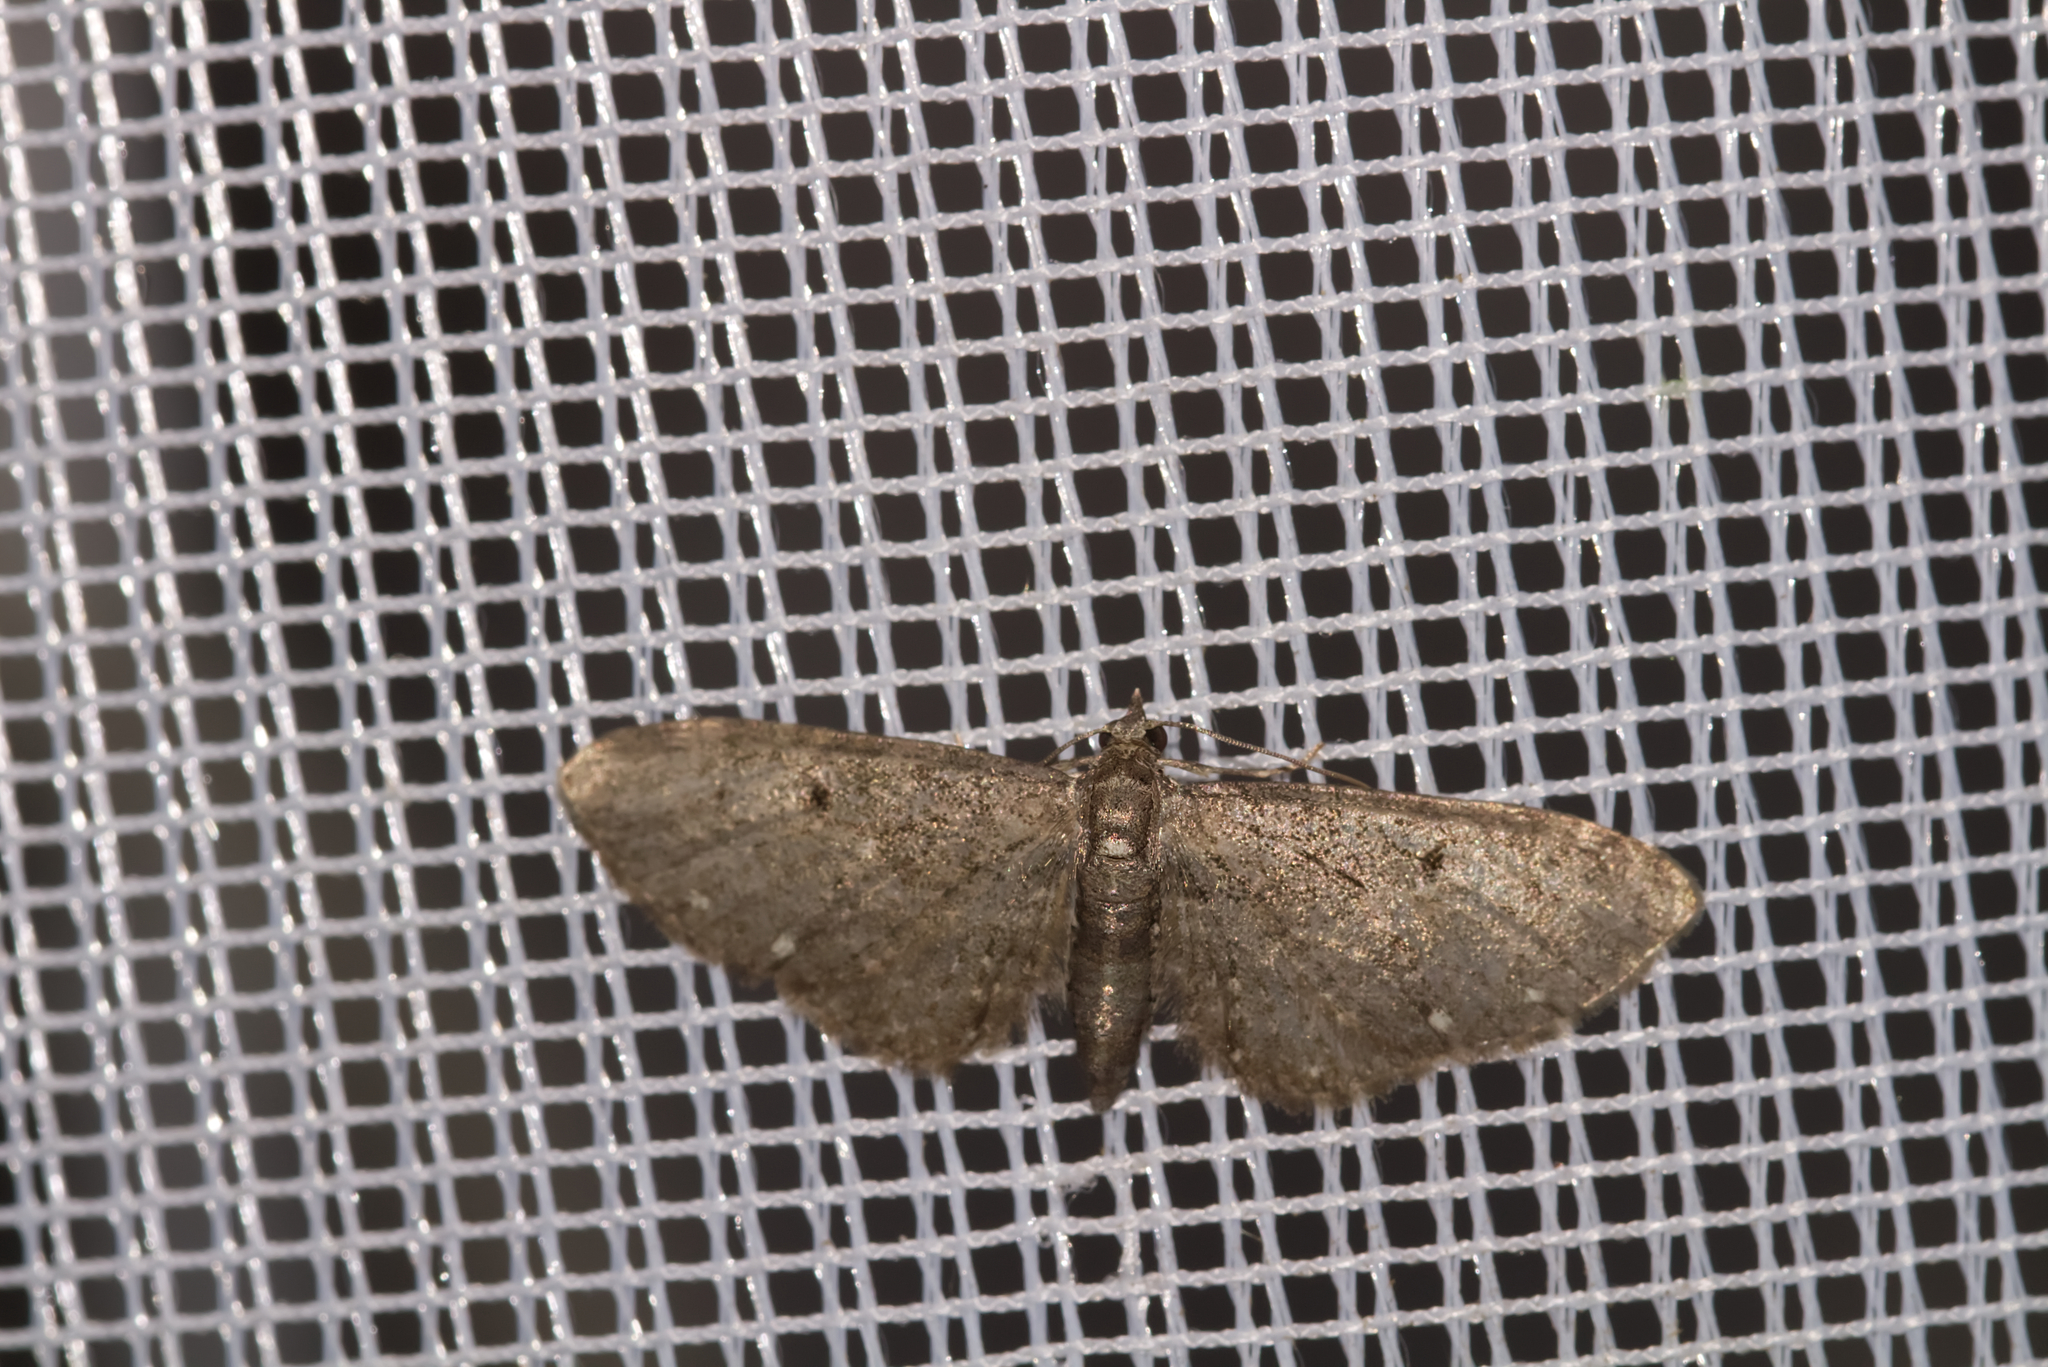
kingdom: Animalia
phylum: Arthropoda
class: Insecta
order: Lepidoptera
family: Geometridae
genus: Eupithecia
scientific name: Eupithecia tripunctaria
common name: White-spotted pug
